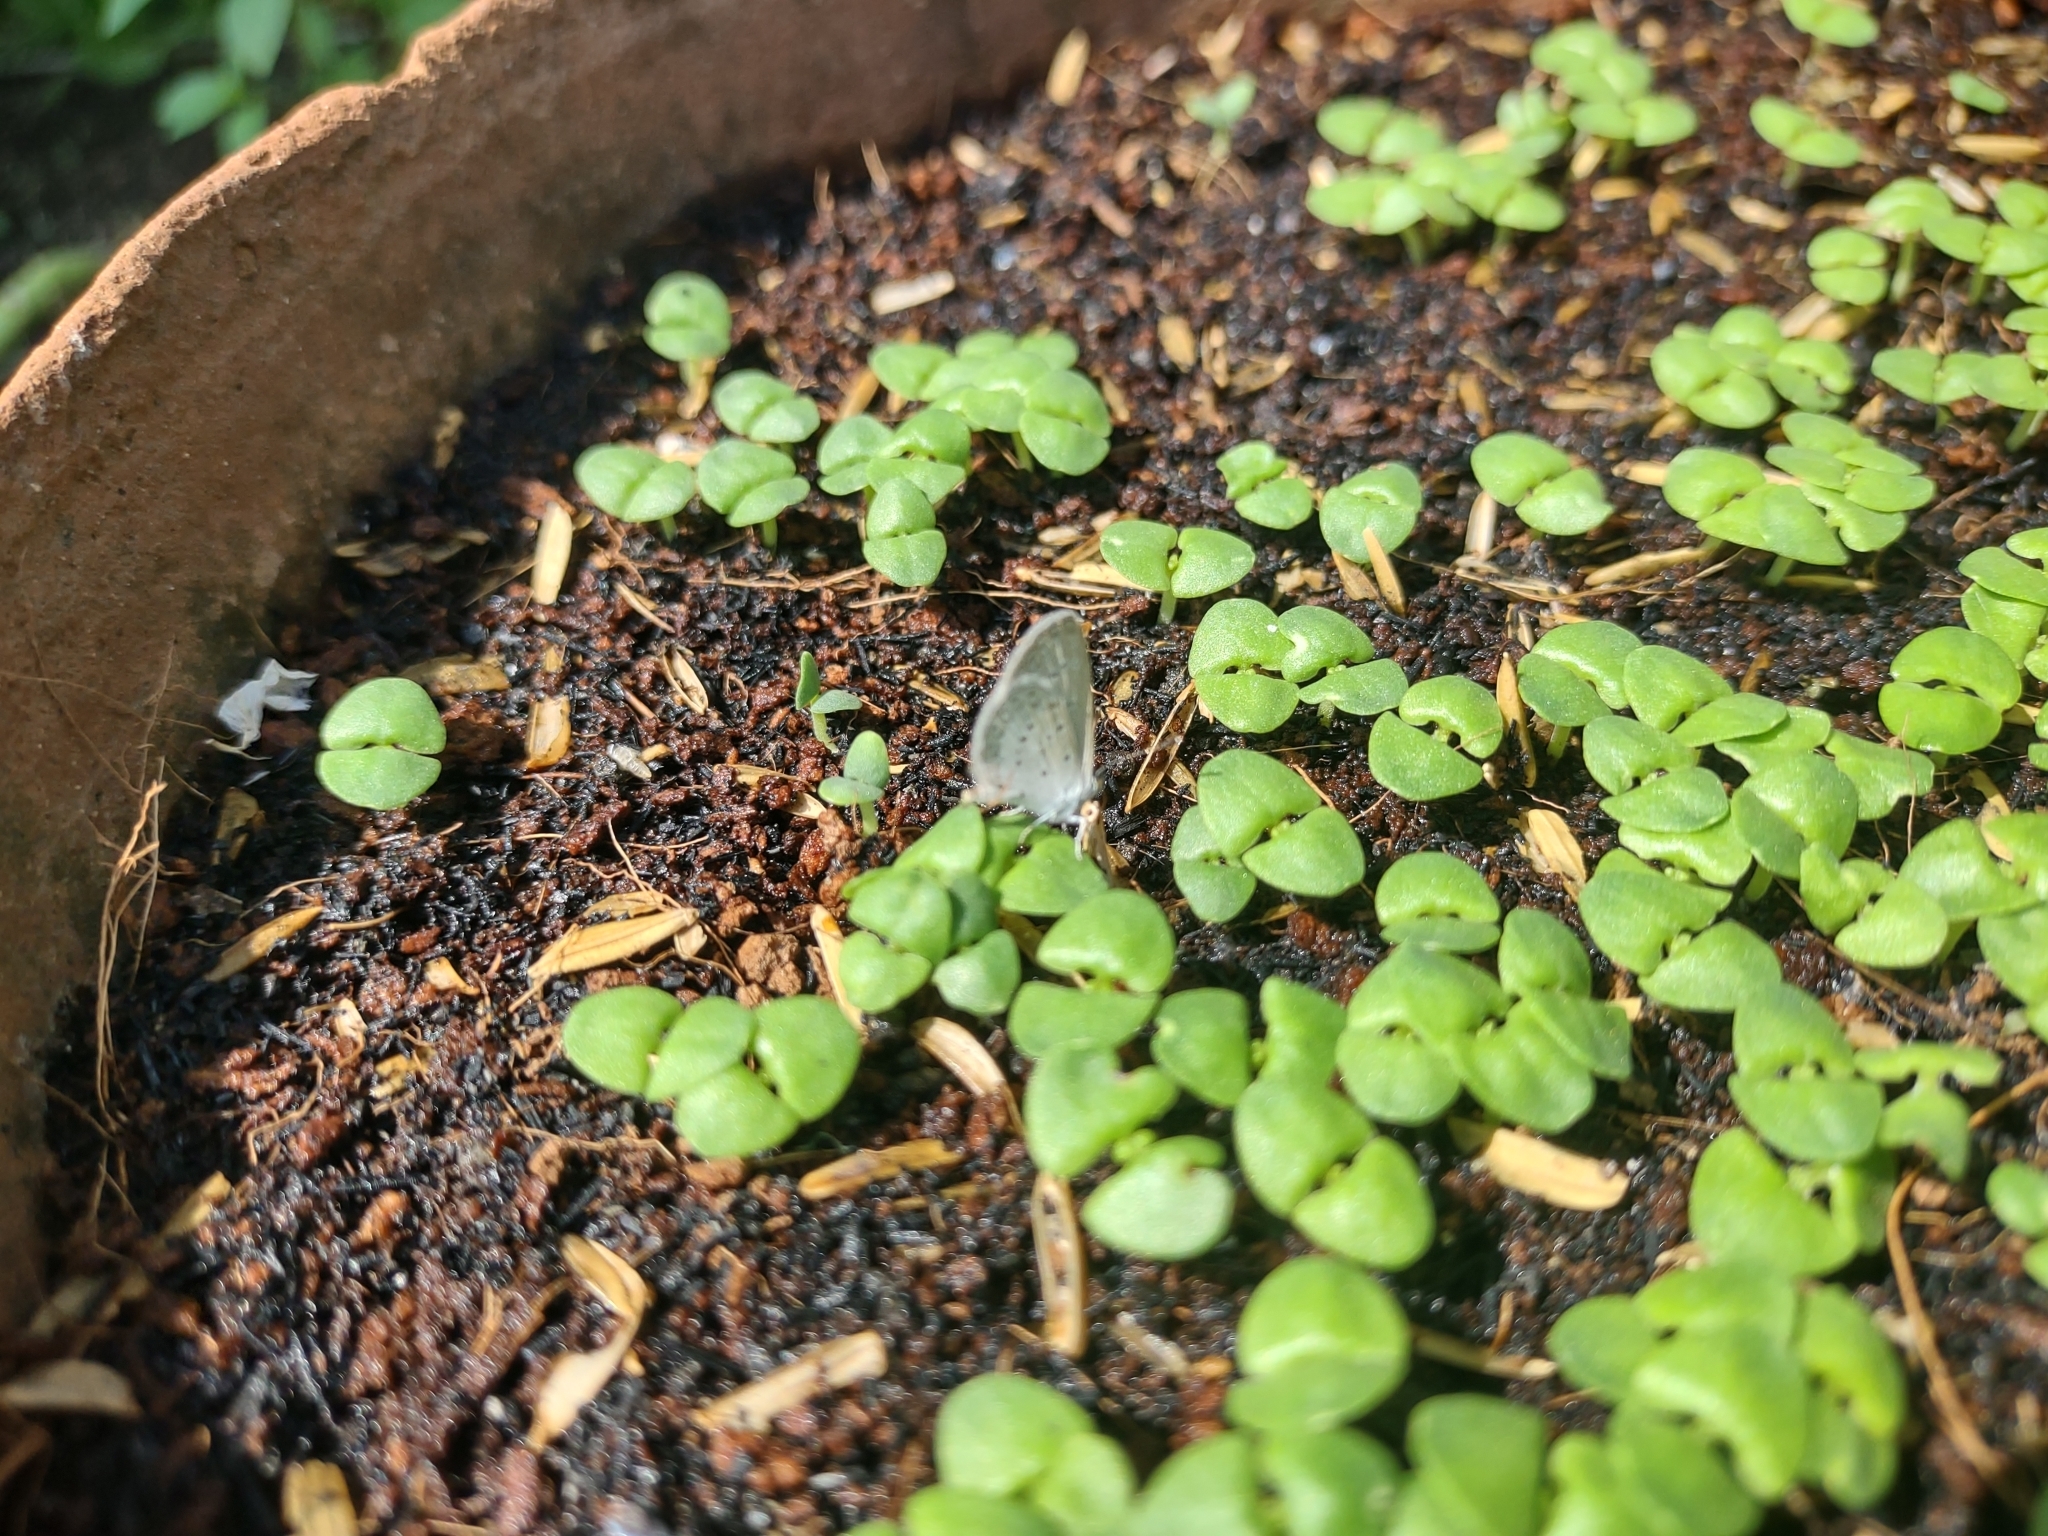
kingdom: Animalia
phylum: Arthropoda
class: Insecta
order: Lepidoptera
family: Lycaenidae
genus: Zizula
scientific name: Zizula hylax
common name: Gaika blue
